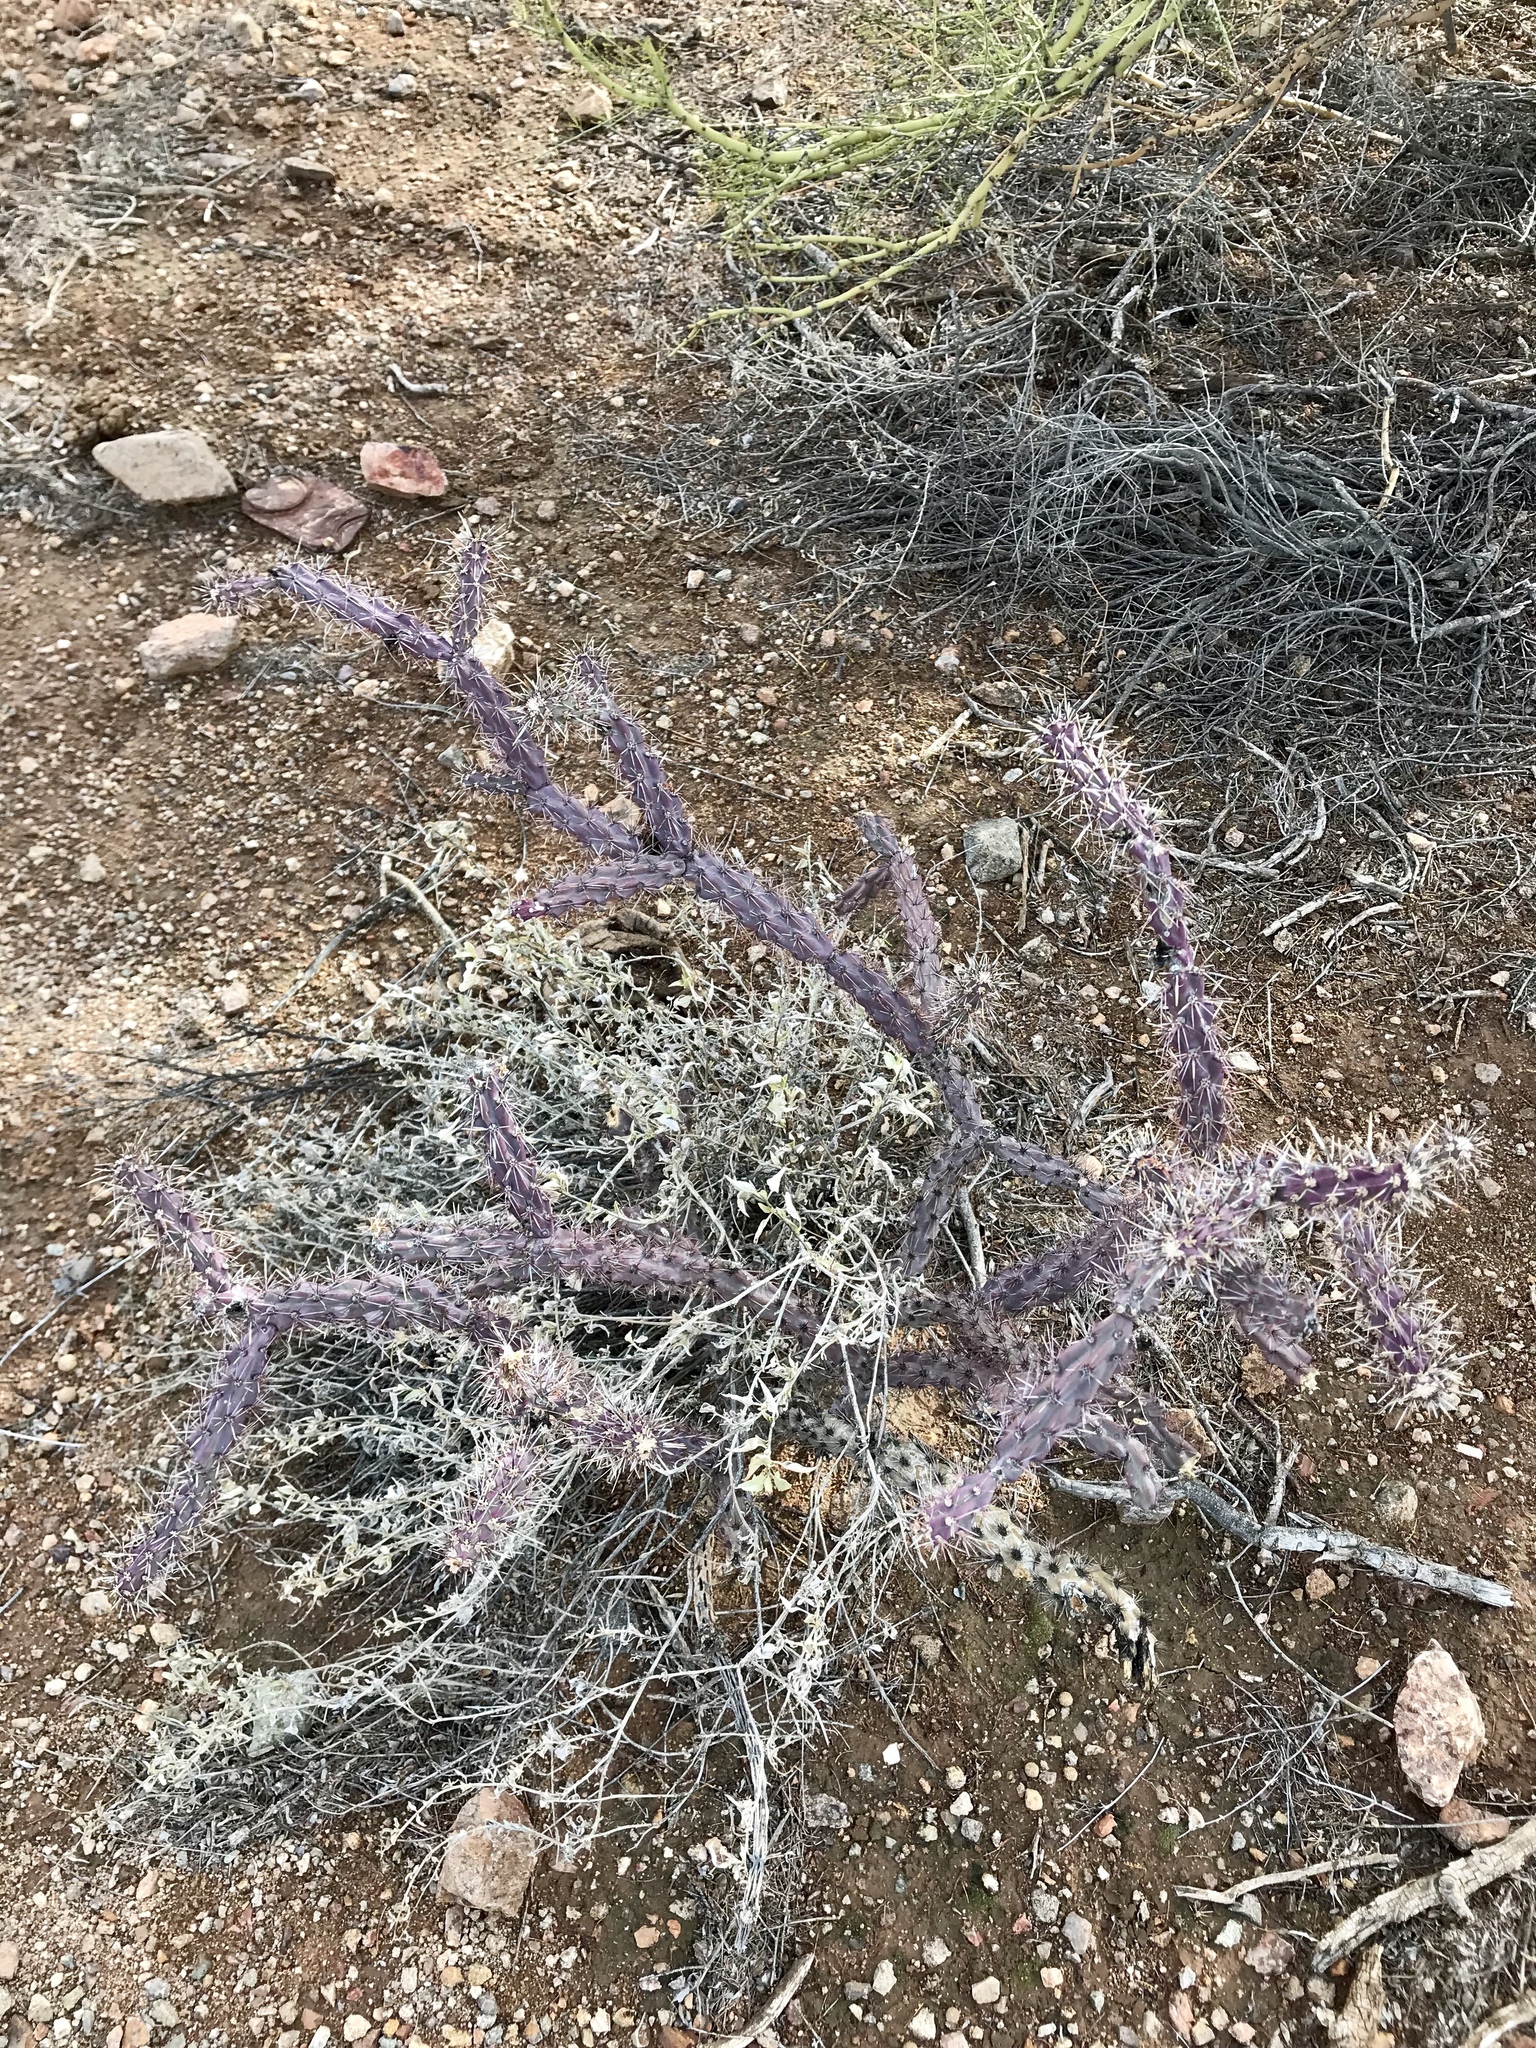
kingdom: Plantae
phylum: Tracheophyta
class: Magnoliopsida
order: Caryophyllales
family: Cactaceae
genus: Cylindropuntia
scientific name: Cylindropuntia thurberi
